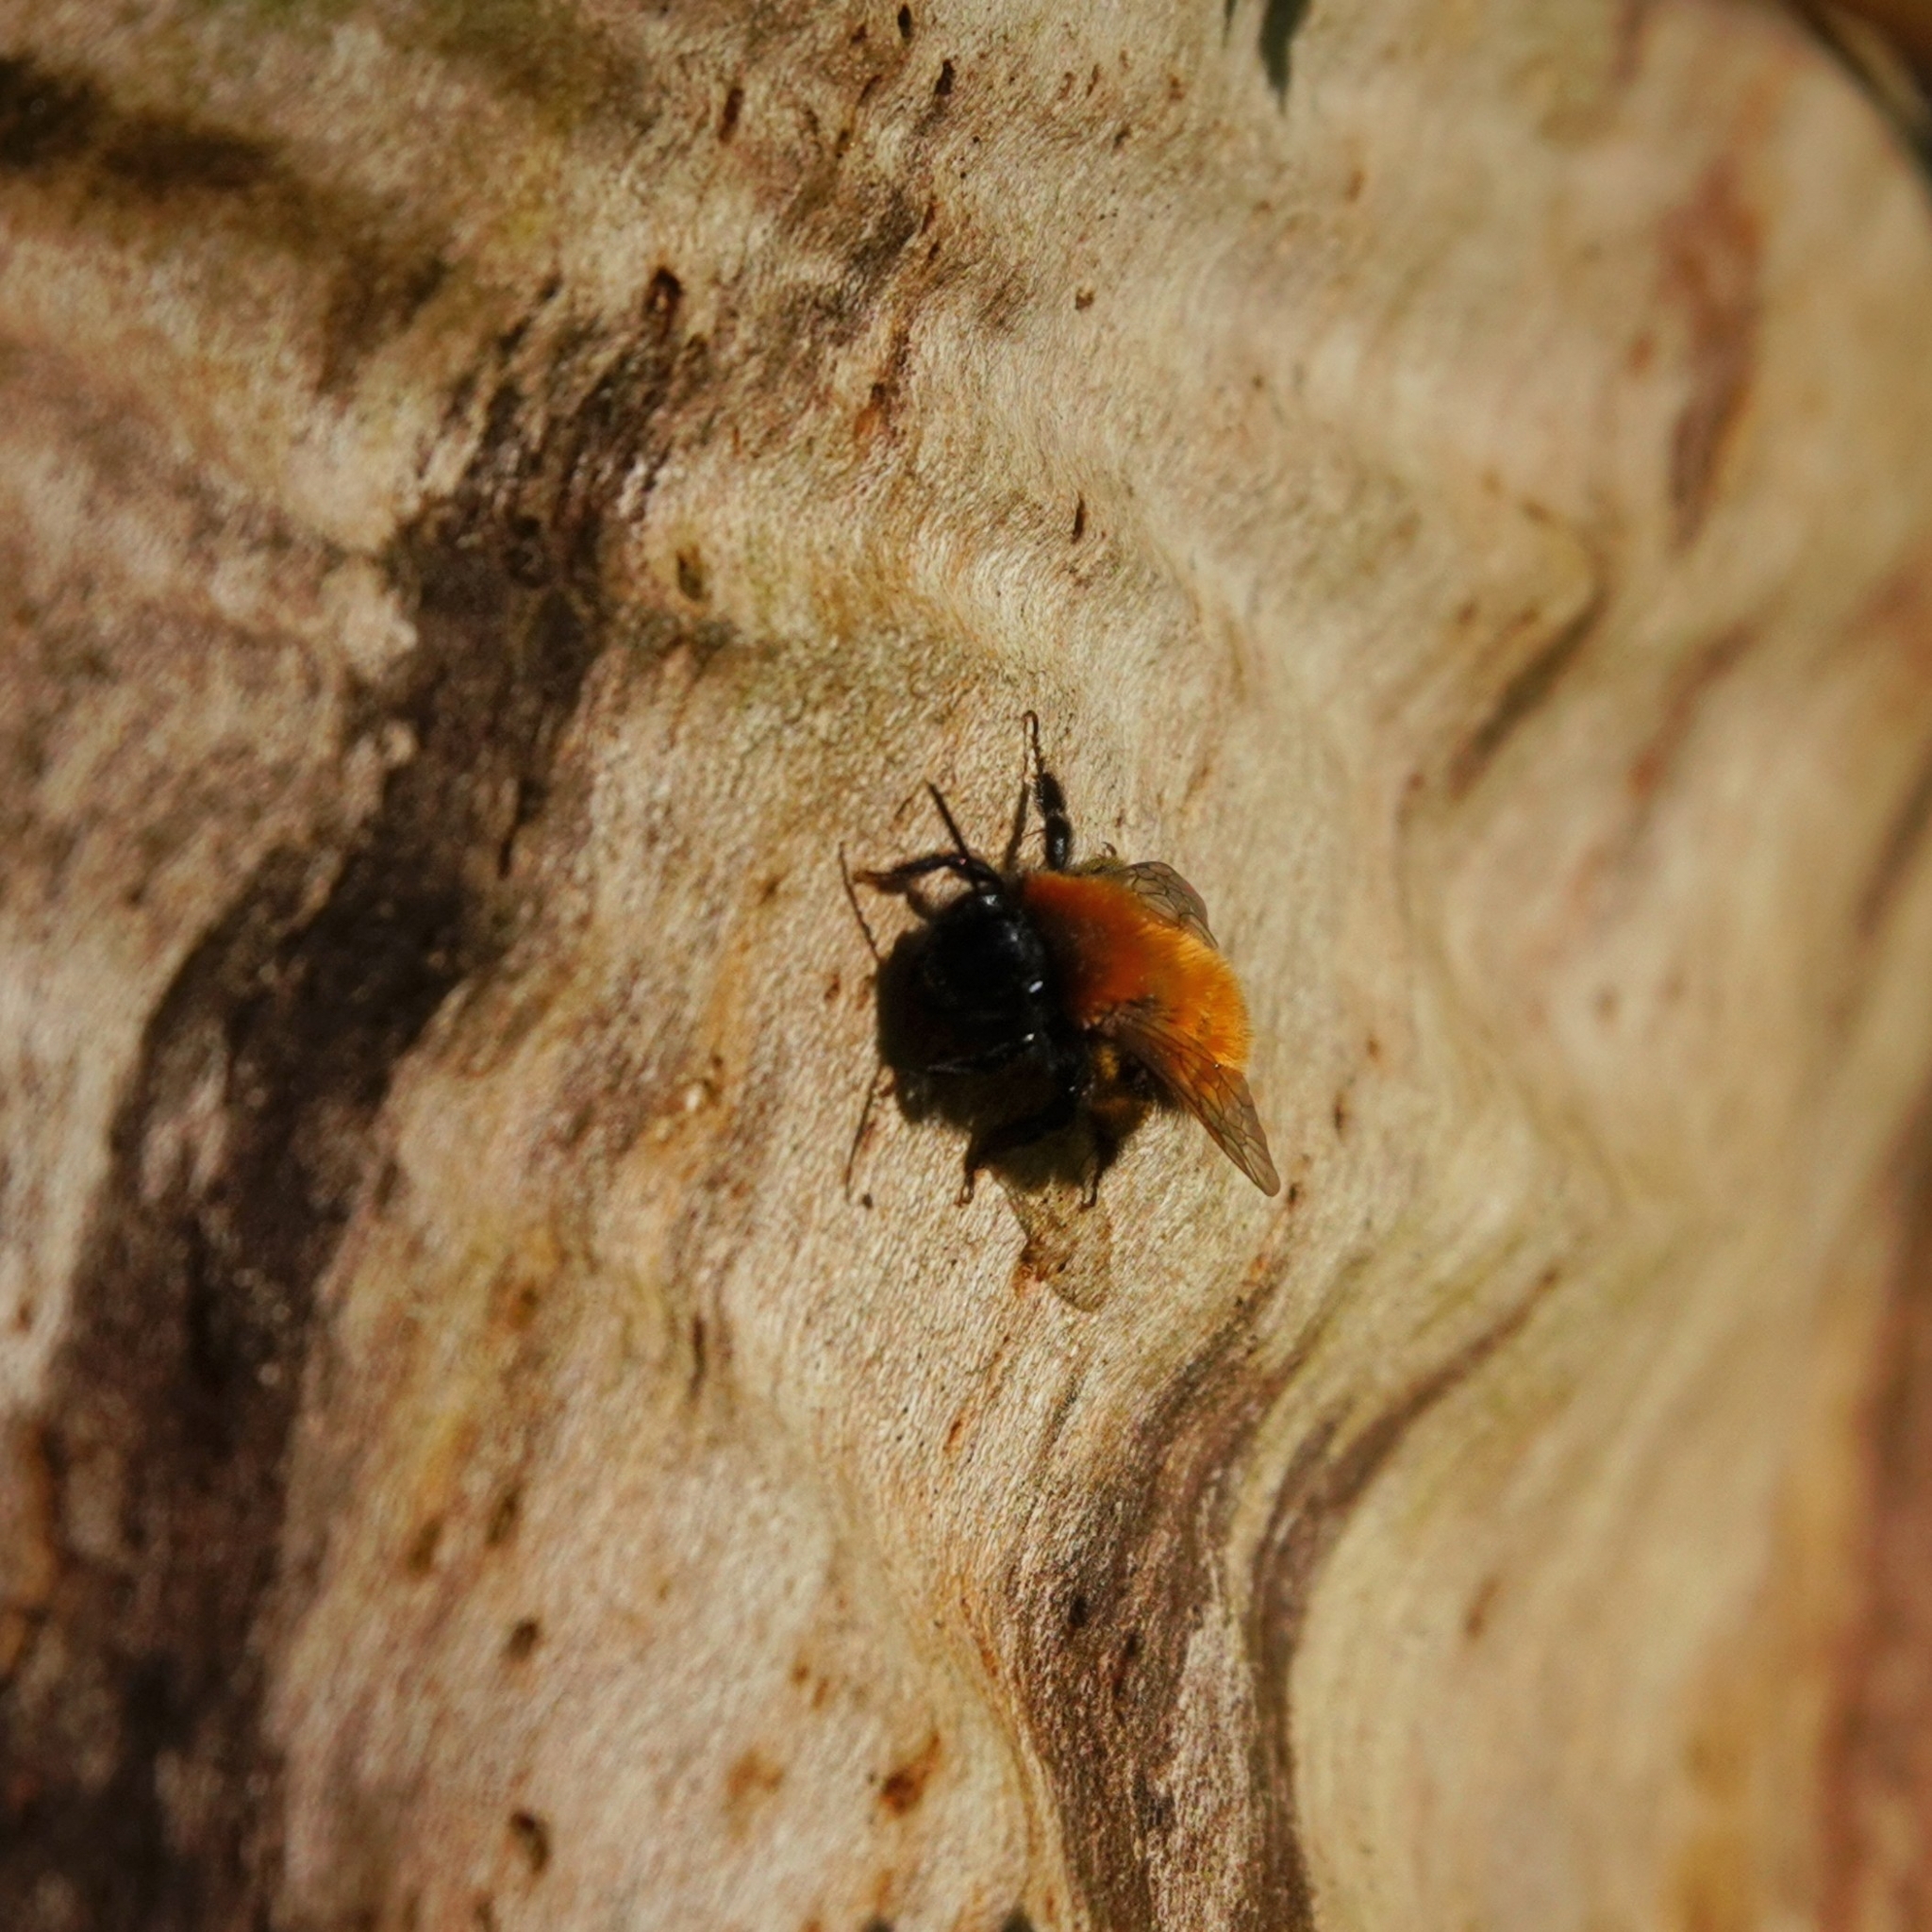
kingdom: Animalia
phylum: Arthropoda
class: Insecta
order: Hymenoptera
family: Andrenidae
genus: Andrena
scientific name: Andrena fulva
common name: Tawny mining bee
